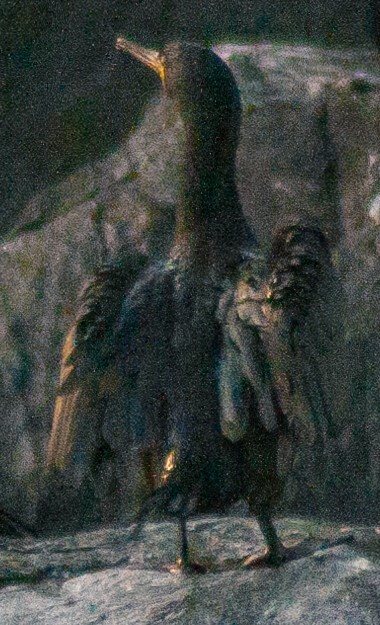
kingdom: Animalia
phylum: Chordata
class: Aves
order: Suliformes
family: Phalacrocoracidae
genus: Phalacrocorax
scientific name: Phalacrocorax aristotelis
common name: European shag
